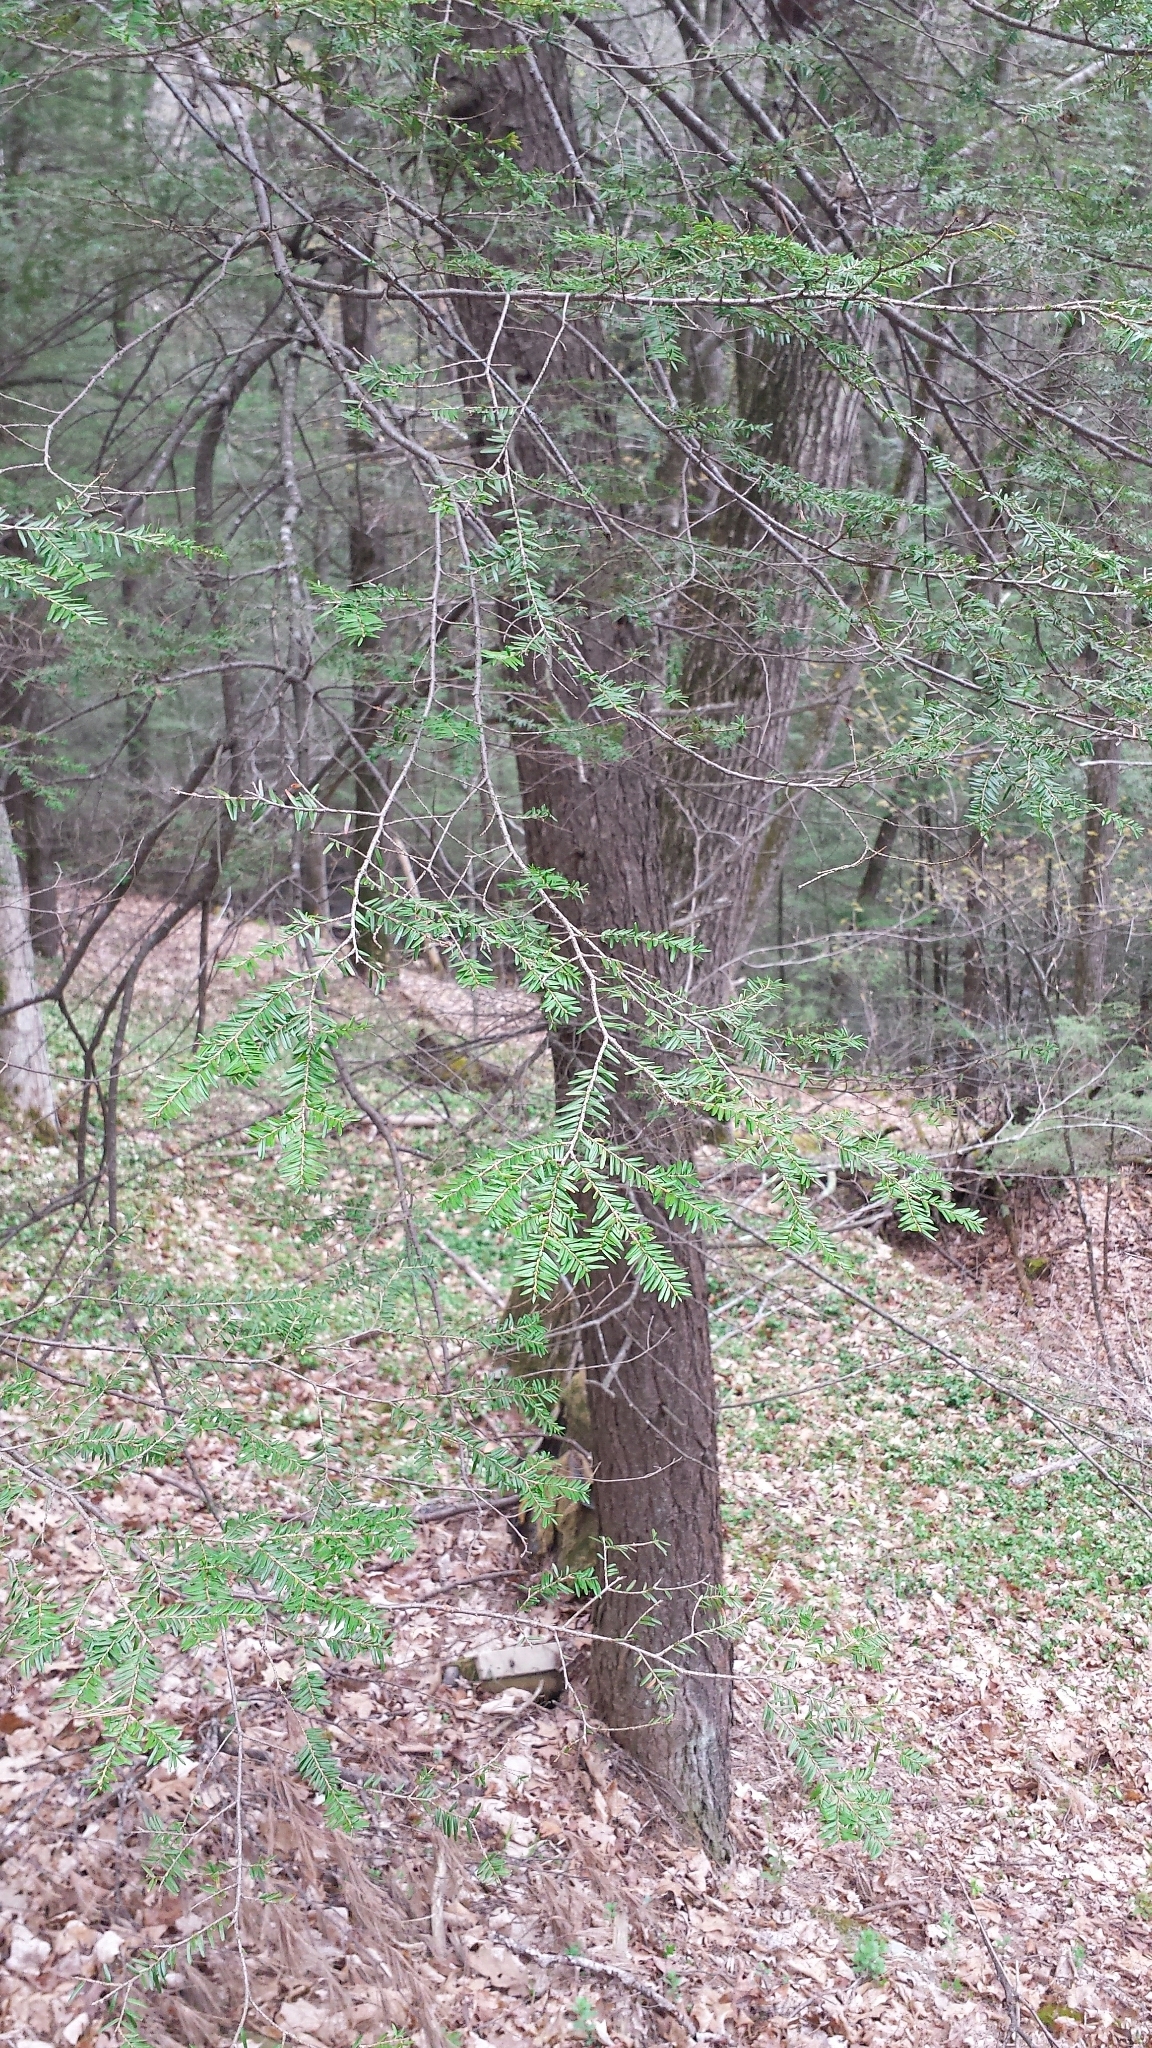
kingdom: Plantae
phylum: Tracheophyta
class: Pinopsida
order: Pinales
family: Pinaceae
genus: Tsuga
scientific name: Tsuga canadensis
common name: Eastern hemlock
